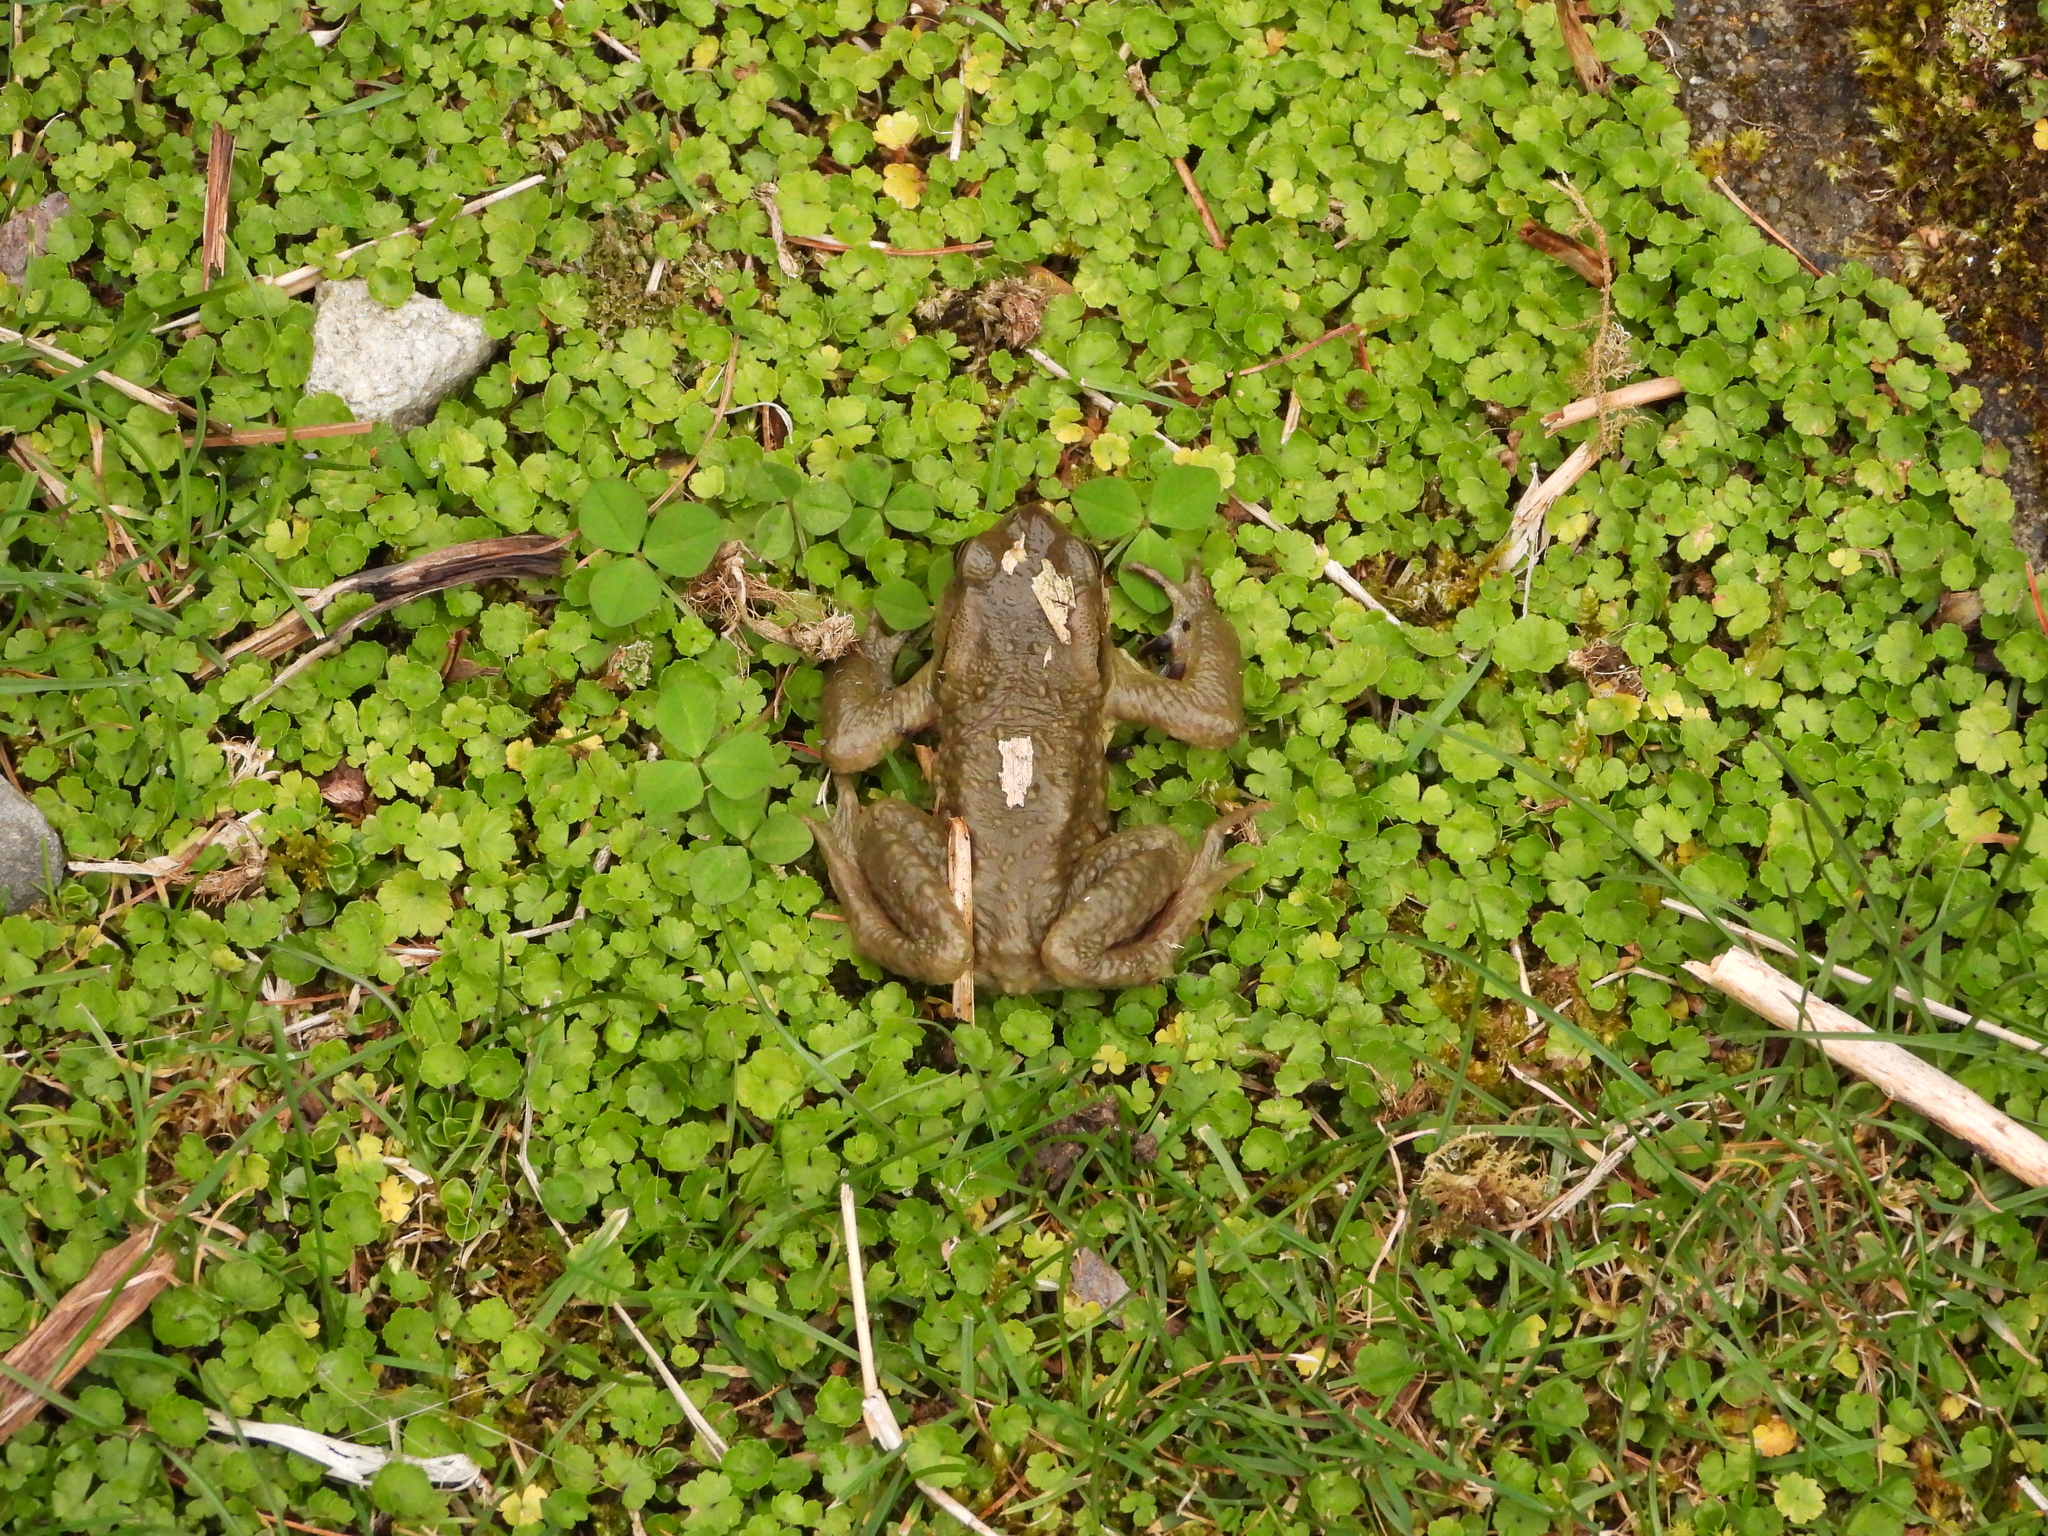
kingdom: Animalia
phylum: Chordata
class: Amphibia
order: Anura
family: Bufonidae
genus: Bufo
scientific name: Bufo bankorensis
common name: Bankor toad
